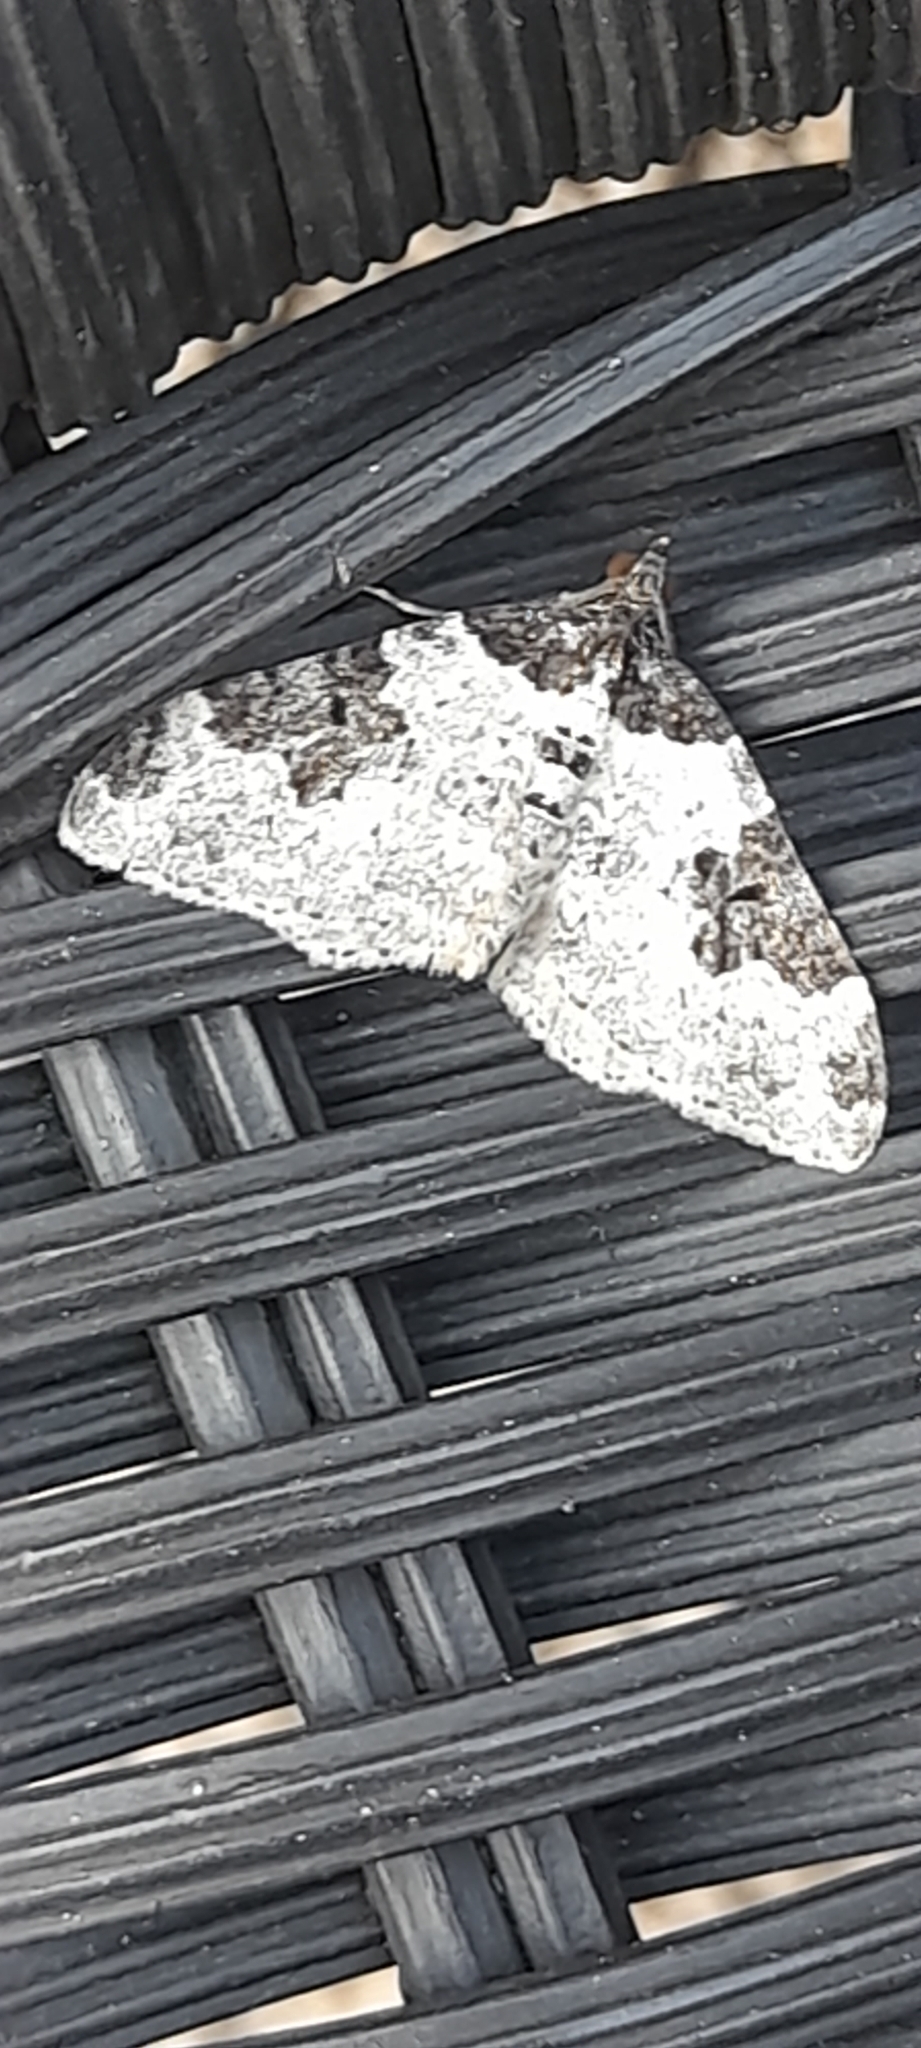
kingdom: Animalia
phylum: Arthropoda
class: Insecta
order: Lepidoptera
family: Geometridae
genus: Xanthorhoe
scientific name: Xanthorhoe fluctuata
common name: Garden carpet
